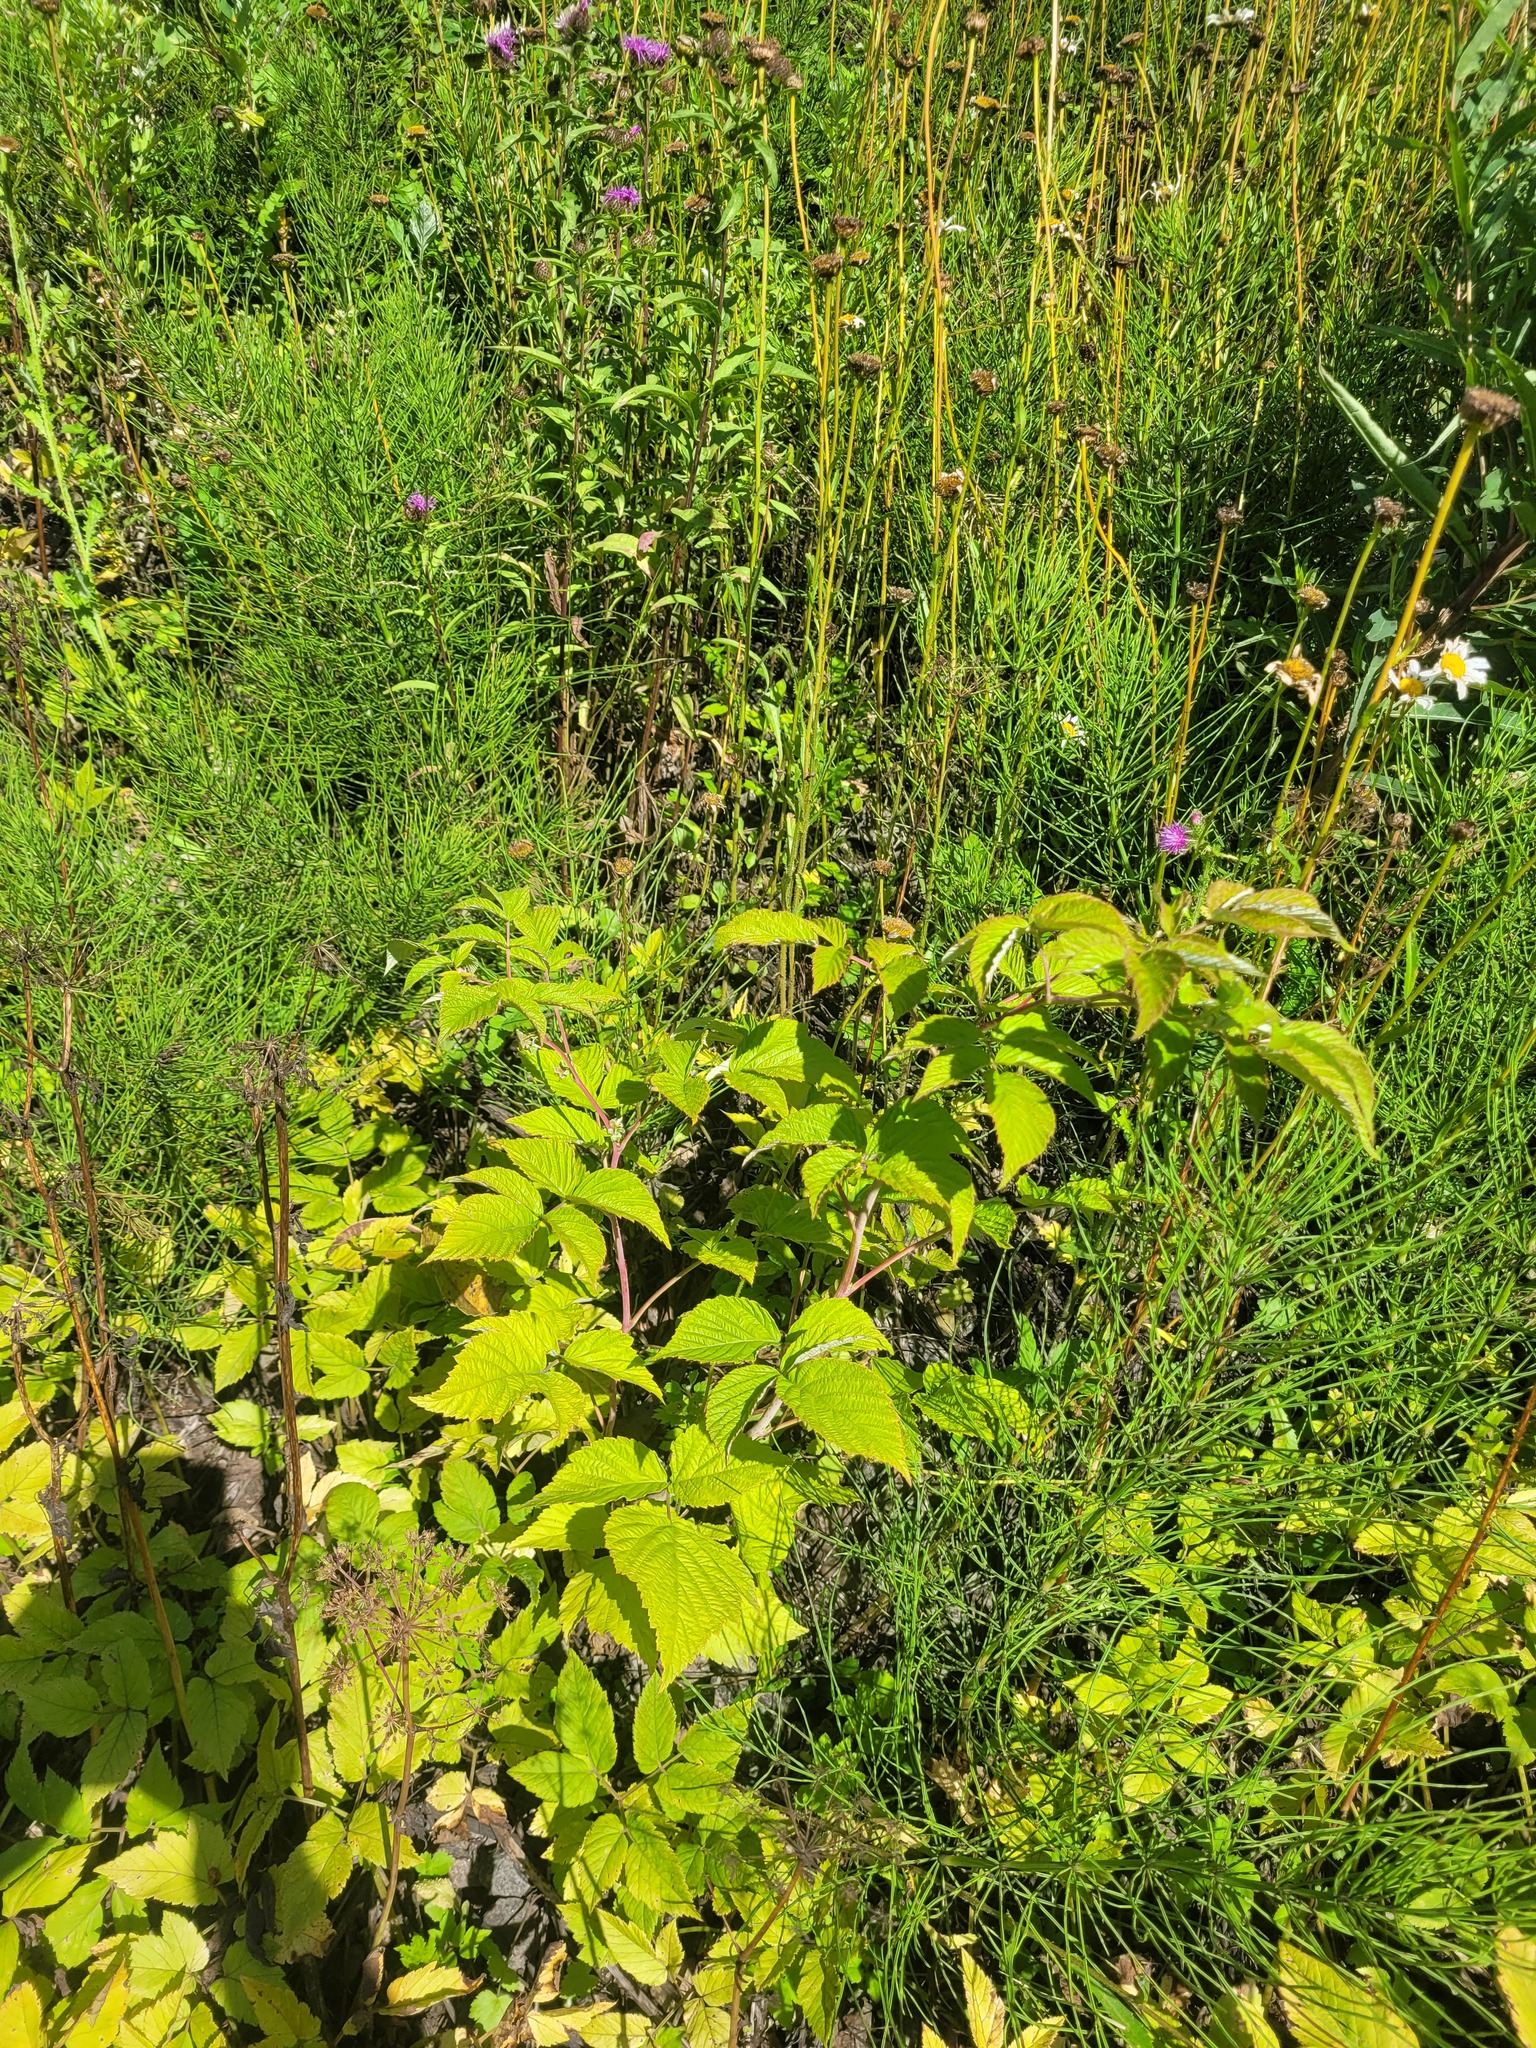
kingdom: Plantae
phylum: Tracheophyta
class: Magnoliopsida
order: Rosales
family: Rosaceae
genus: Rubus
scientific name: Rubus idaeus
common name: Raspberry
